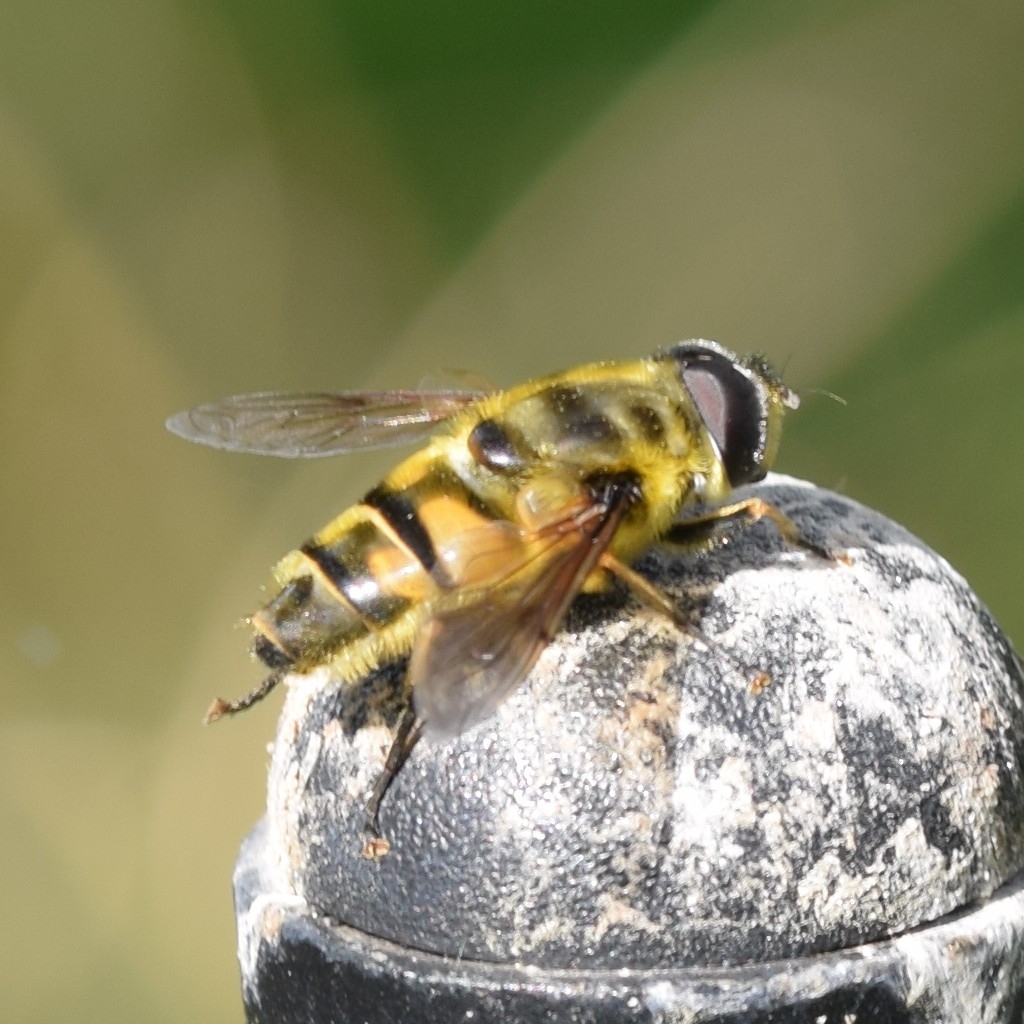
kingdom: Animalia
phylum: Arthropoda
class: Insecta
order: Diptera
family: Syrphidae
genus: Myathropa
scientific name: Myathropa florea
